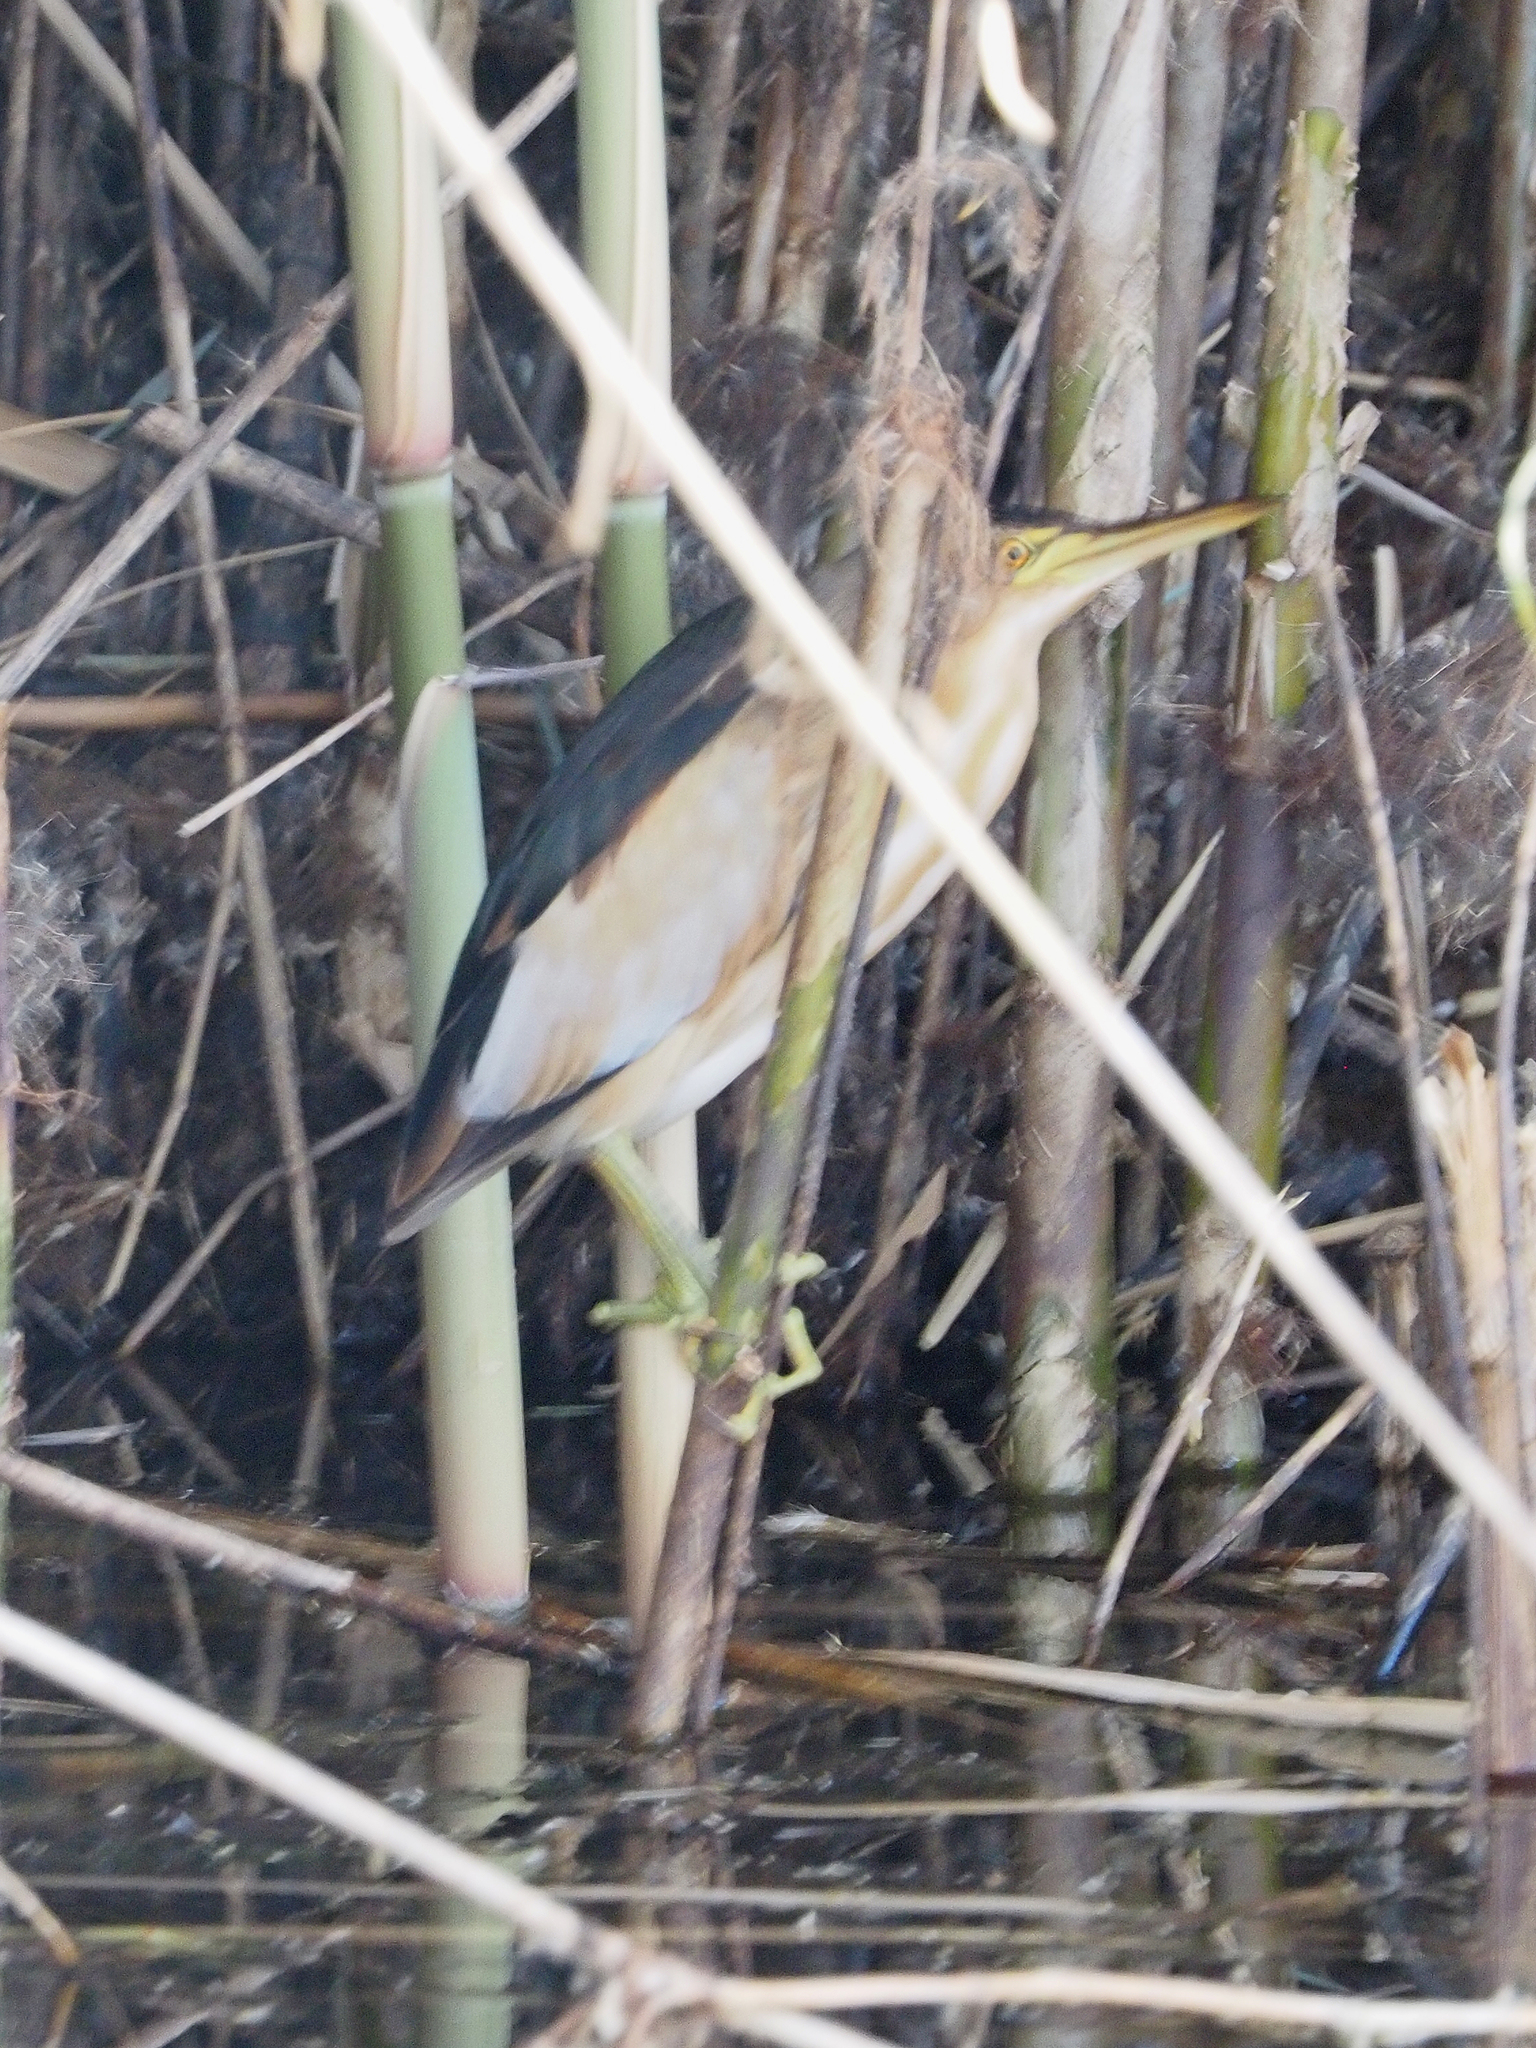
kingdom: Animalia
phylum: Chordata
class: Aves
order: Pelecaniformes
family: Ardeidae
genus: Ixobrychus
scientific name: Ixobrychus minutus
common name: Little bittern
